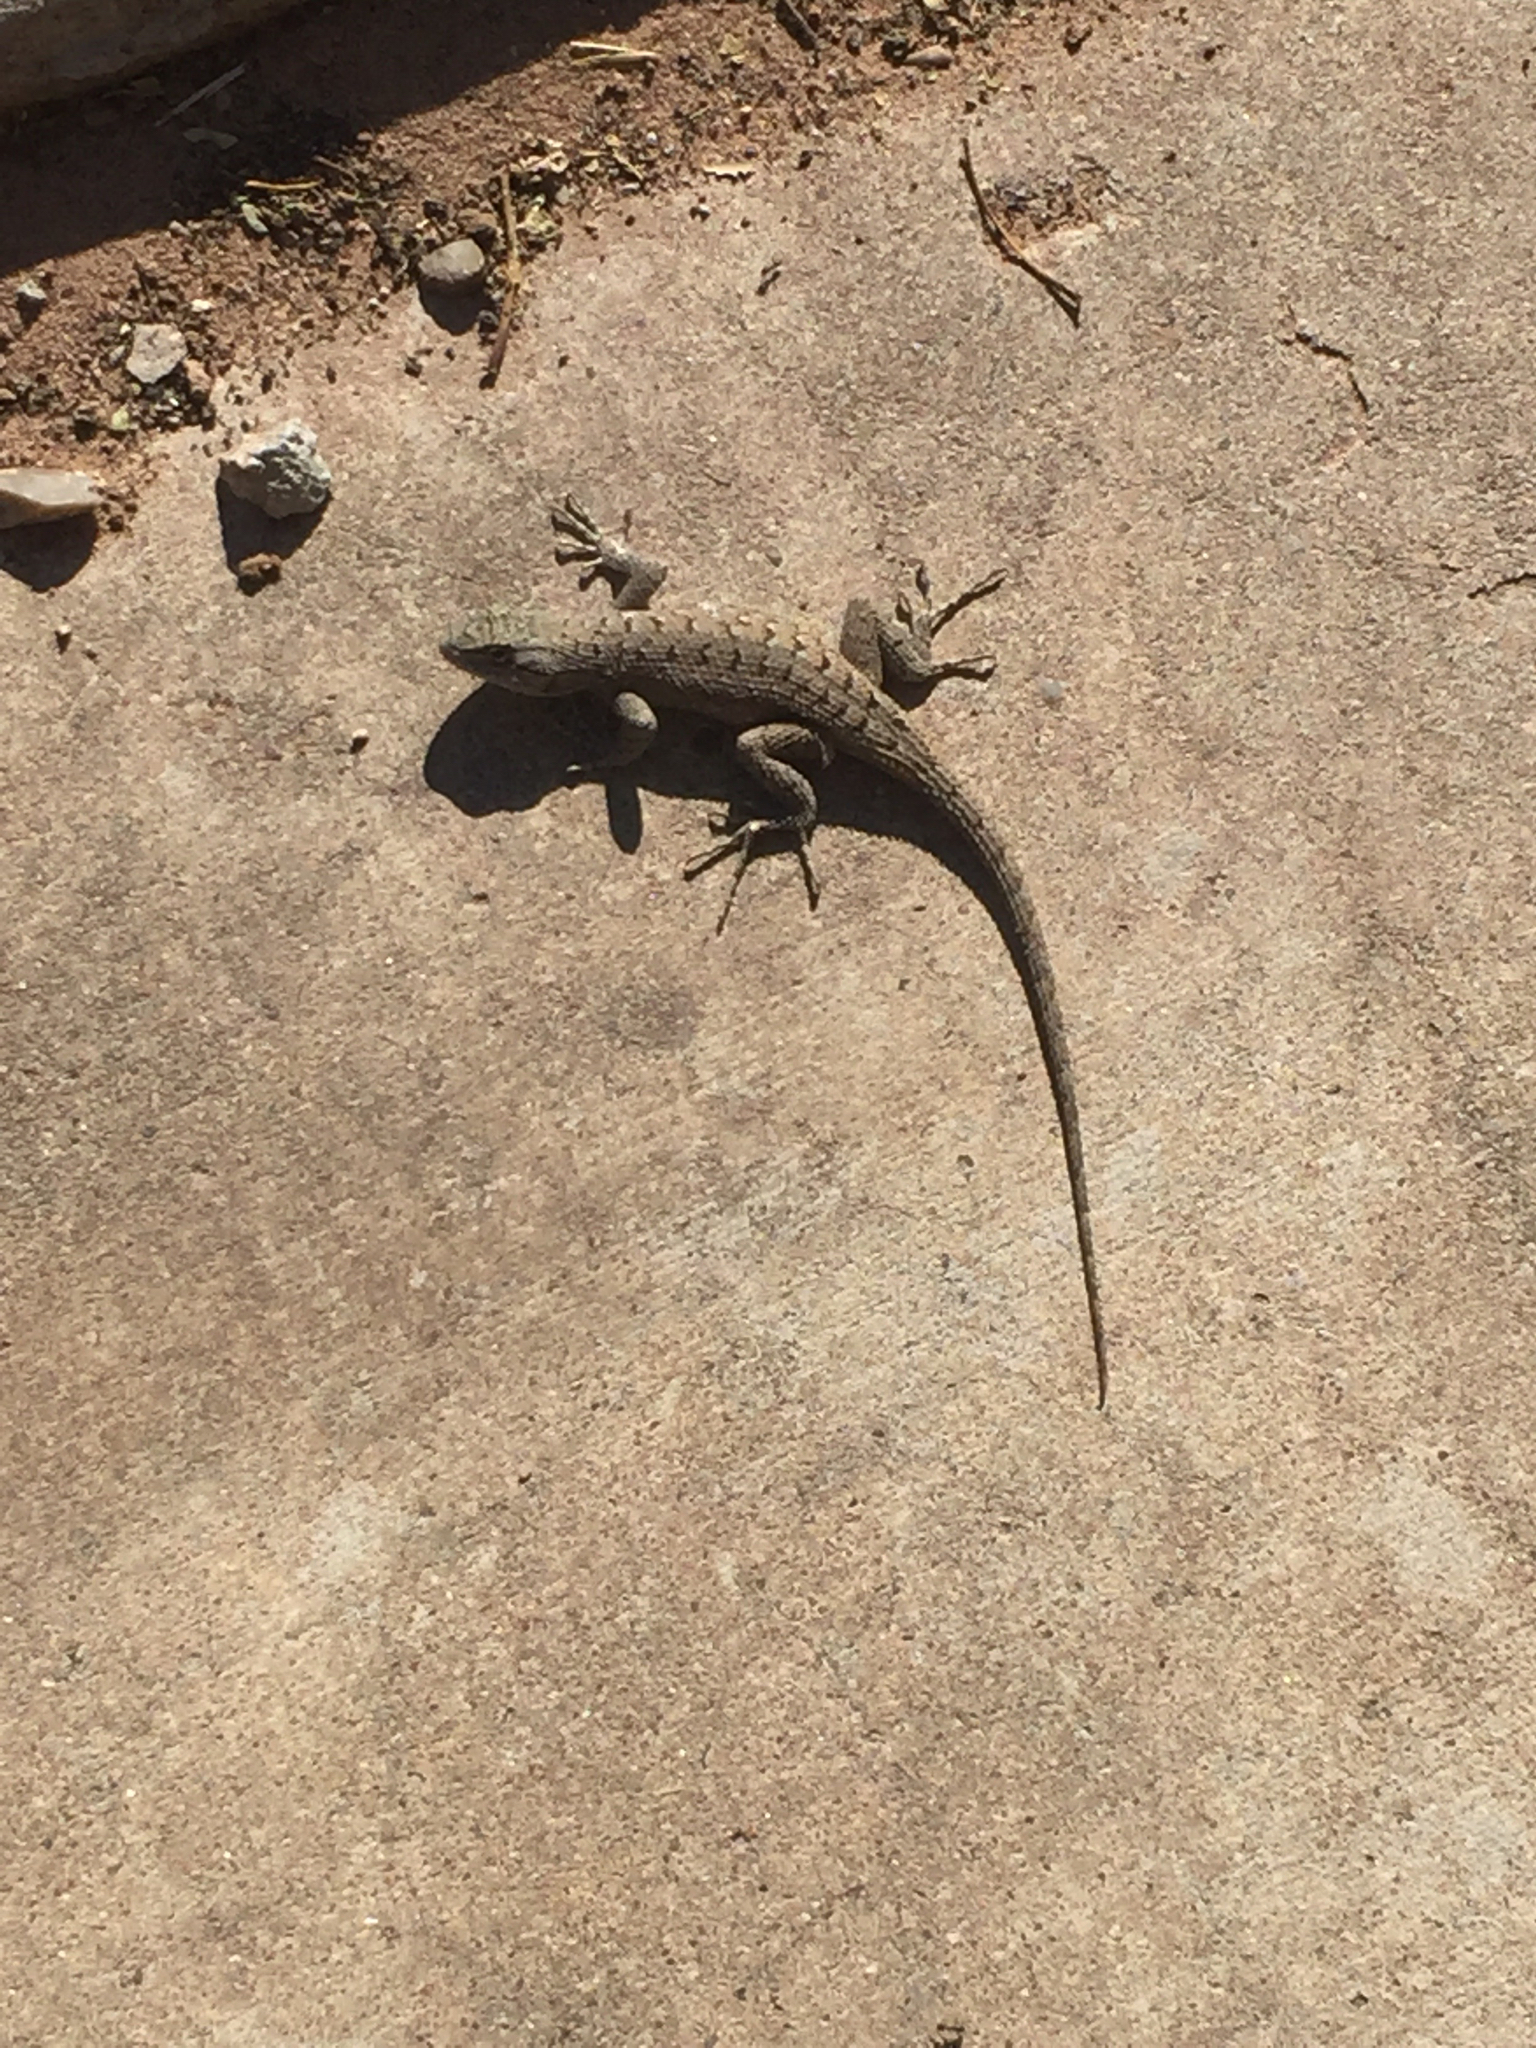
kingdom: Animalia
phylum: Chordata
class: Squamata
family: Phrynosomatidae
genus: Sceloporus
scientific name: Sceloporus tristichus
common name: Plateau fence lizard
